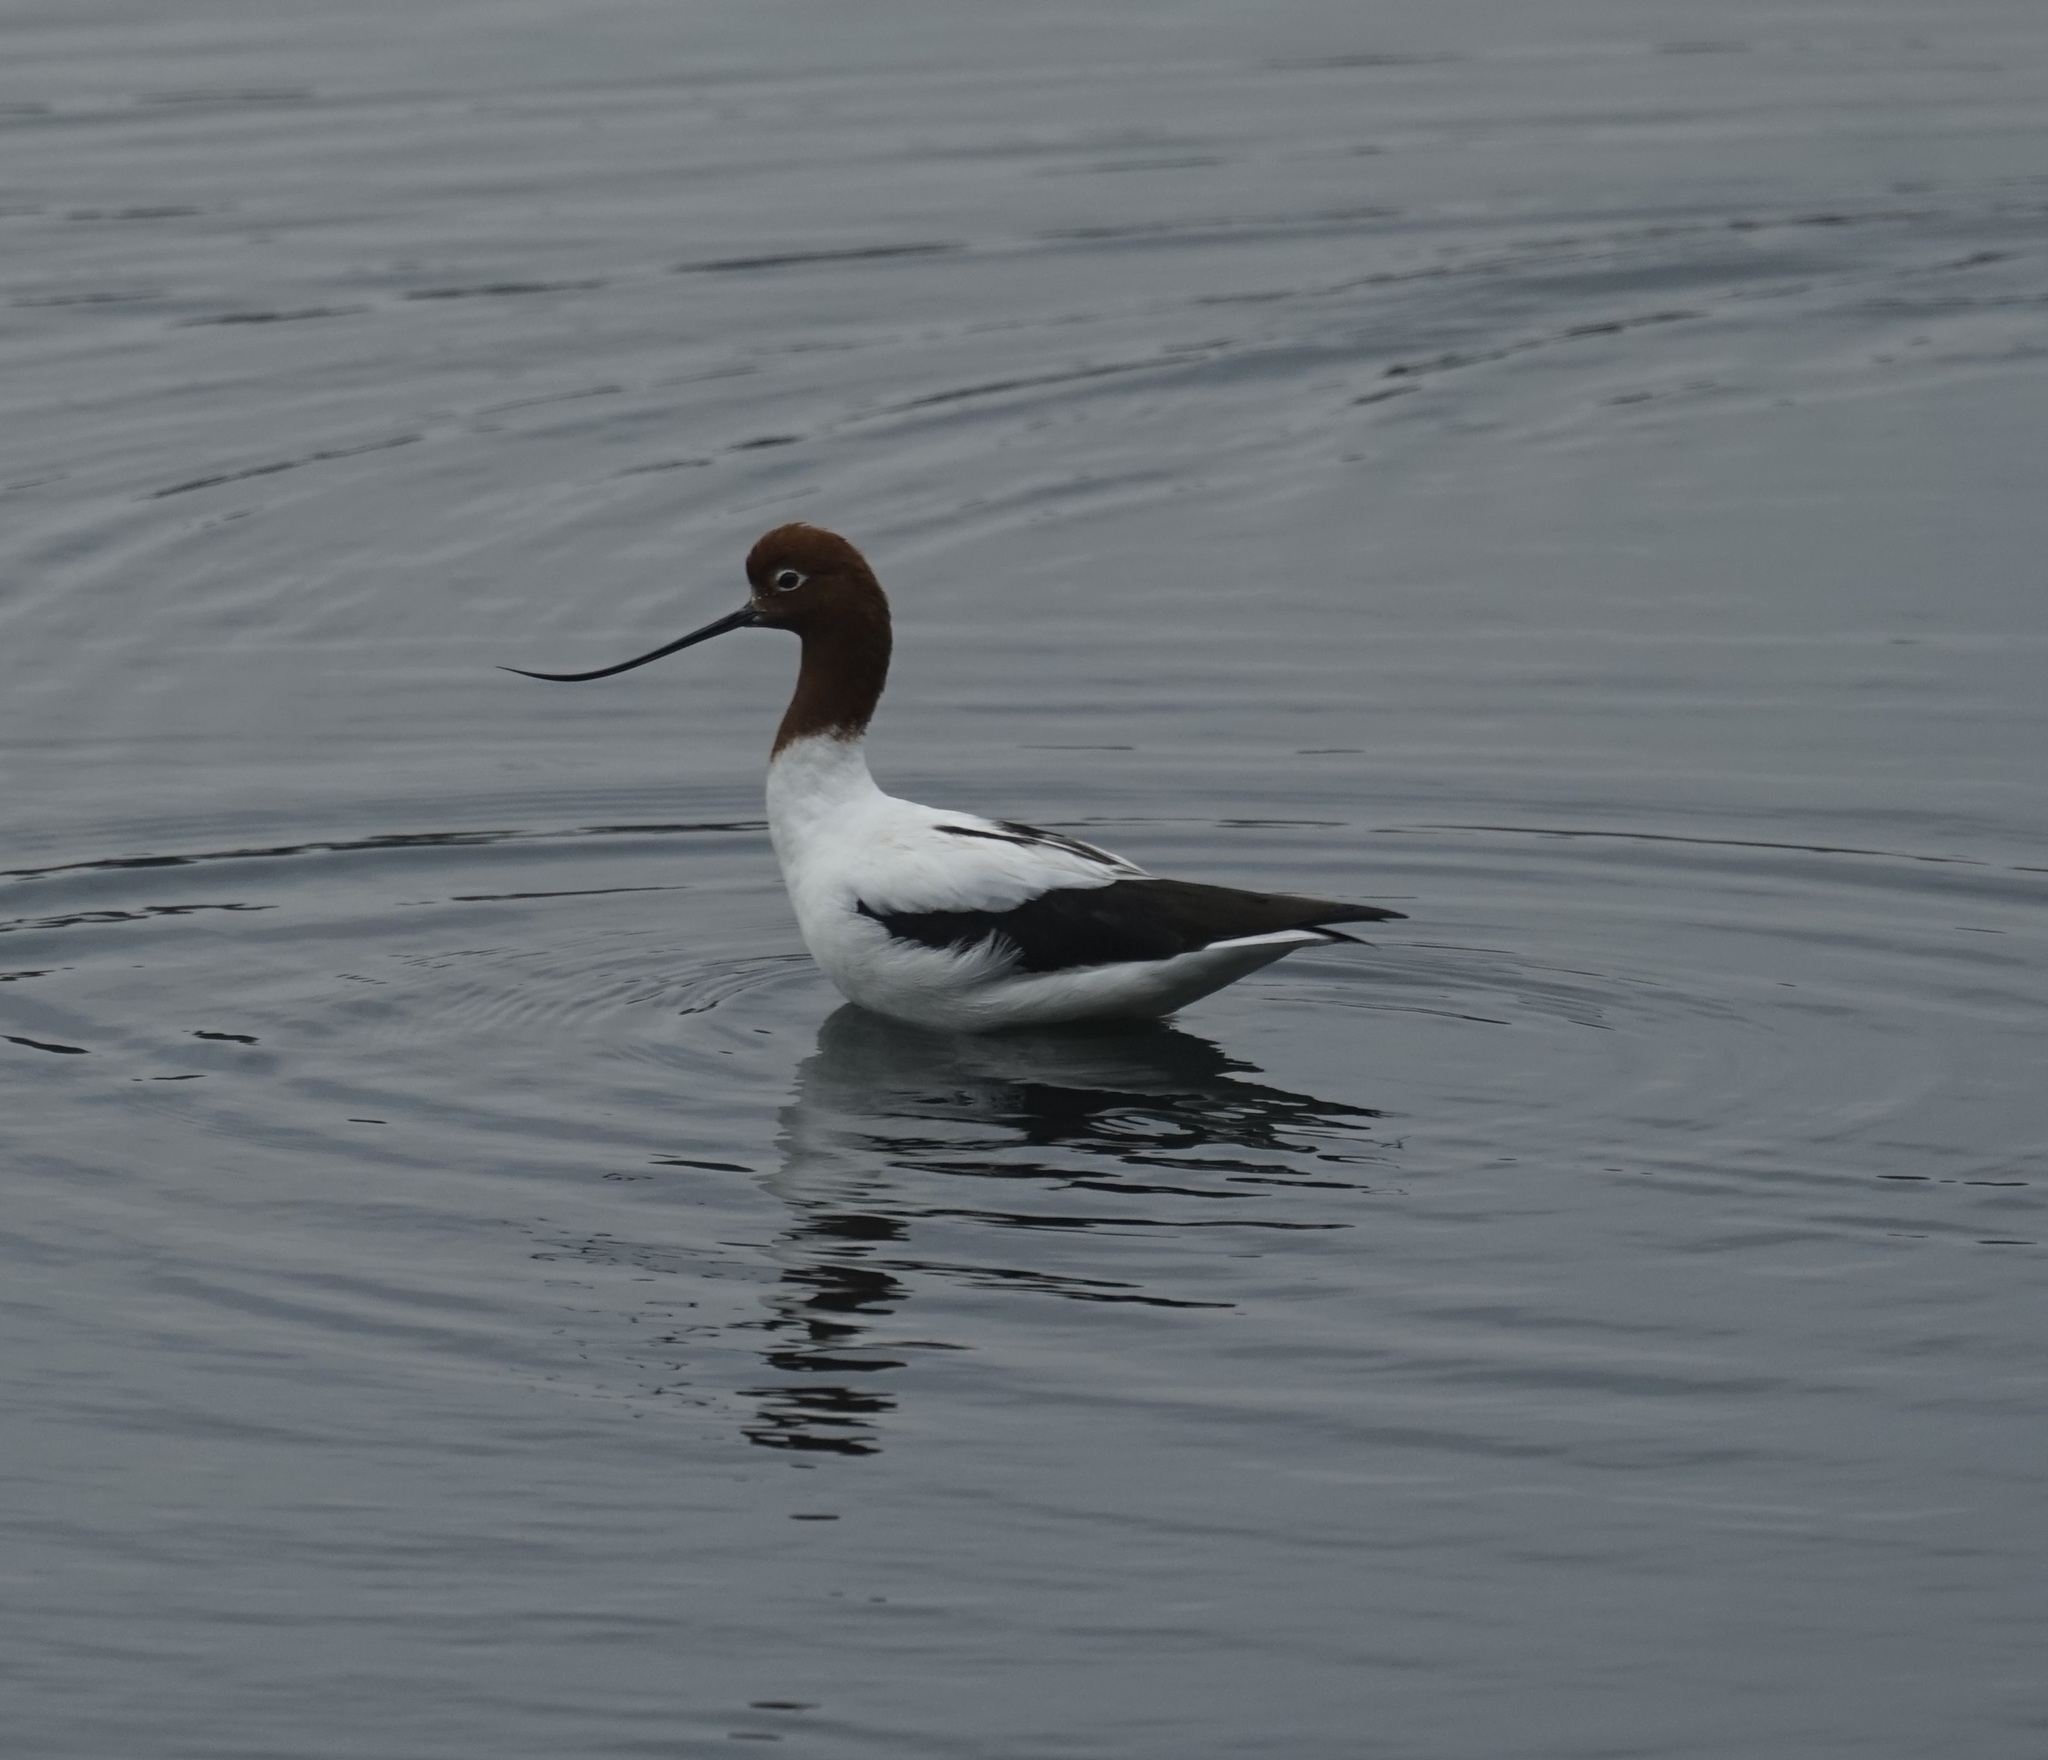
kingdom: Animalia
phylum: Chordata
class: Aves
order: Charadriiformes
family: Recurvirostridae
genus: Recurvirostra
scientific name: Recurvirostra novaehollandiae
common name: Red-necked avocet
